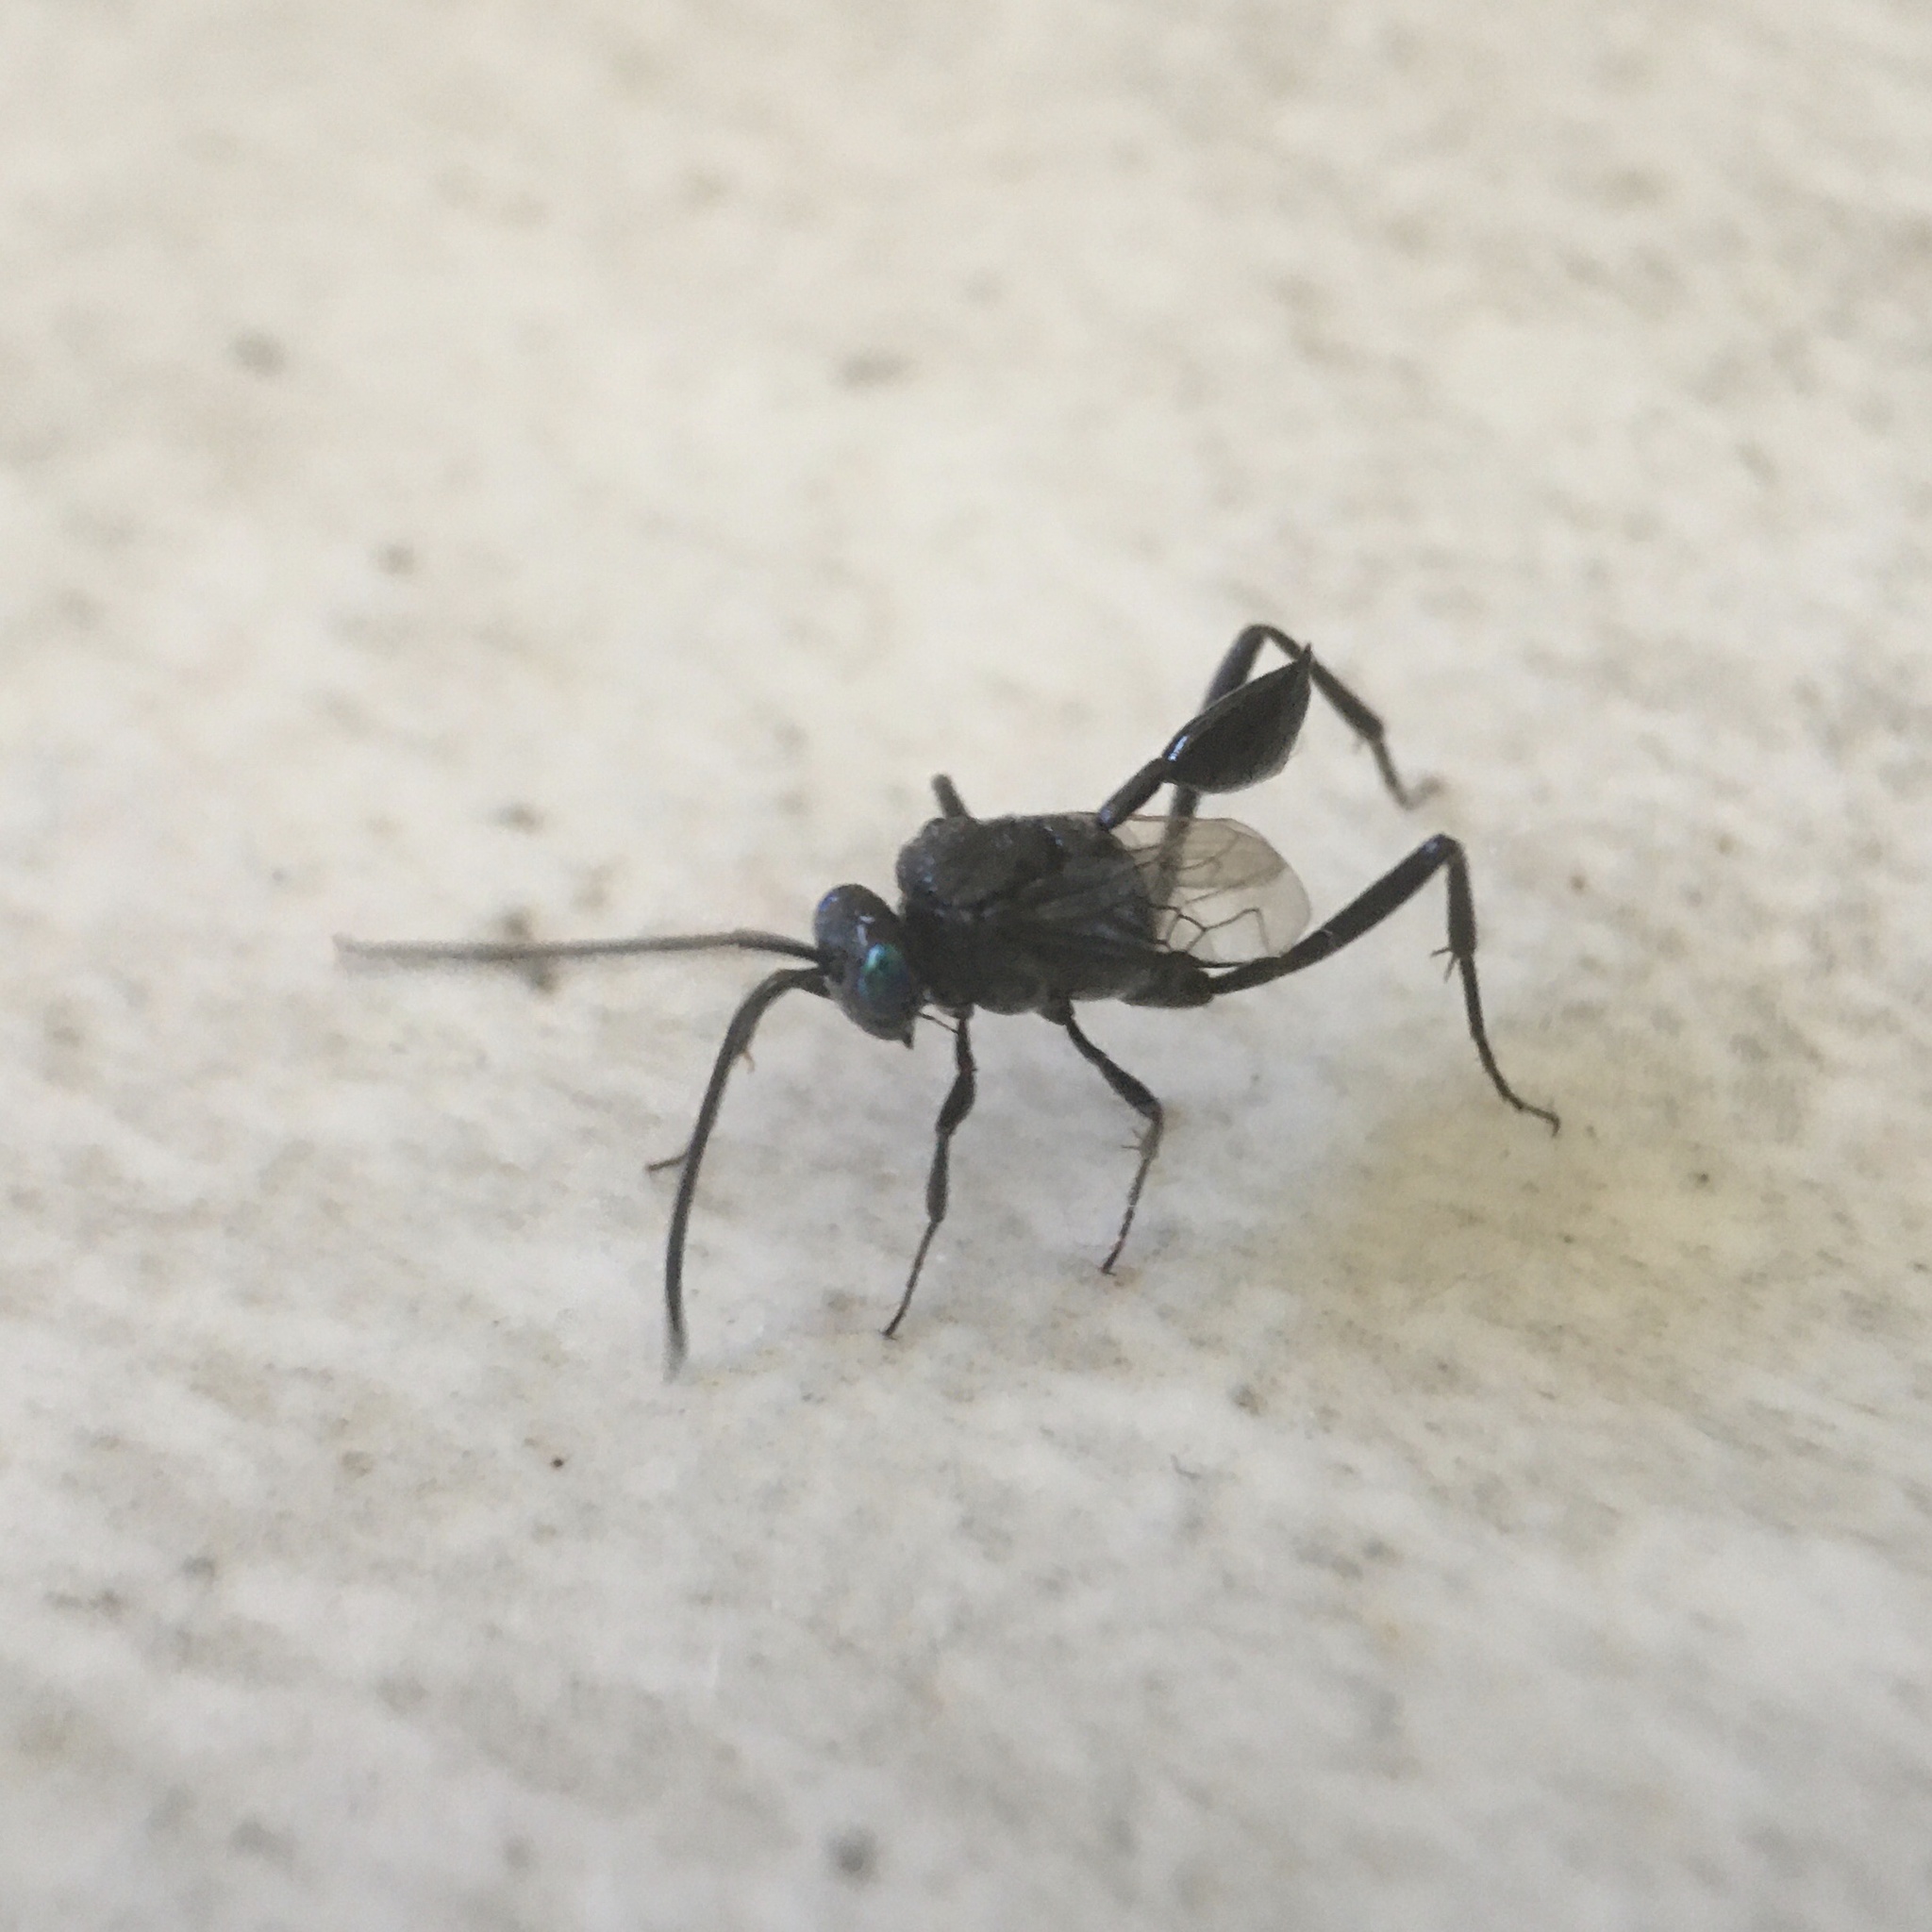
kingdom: Animalia
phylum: Arthropoda
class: Insecta
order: Hymenoptera
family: Evaniidae
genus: Evania
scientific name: Evania appendigaster
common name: Ensign wasp
